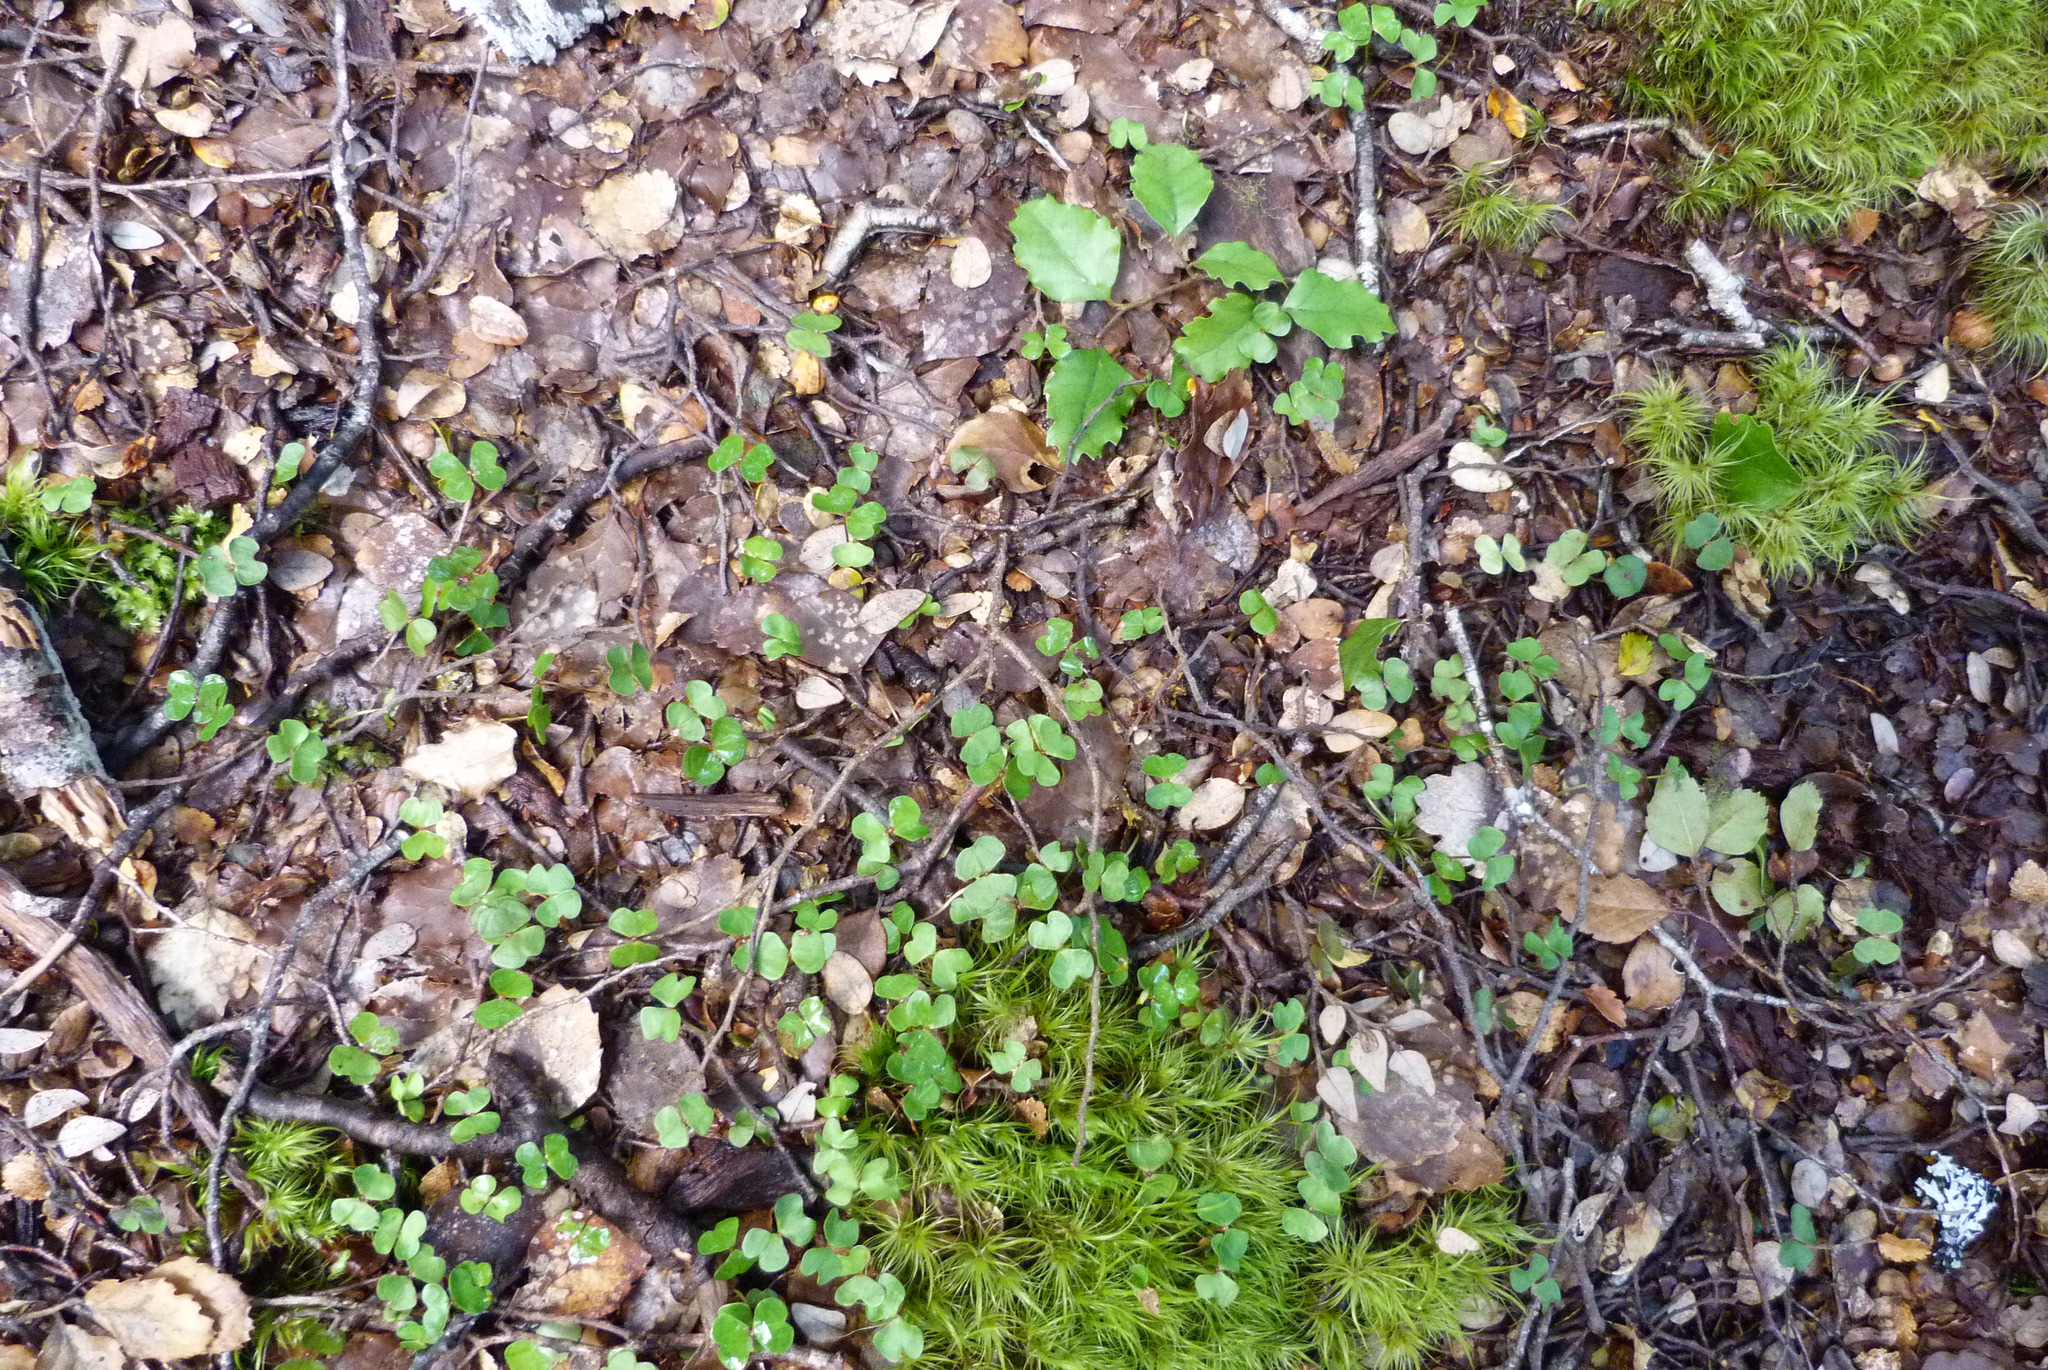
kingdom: Plantae
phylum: Tracheophyta
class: Magnoliopsida
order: Fagales
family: Nothofagaceae
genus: Nothofagus
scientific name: Nothofagus fusca
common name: Red beech
